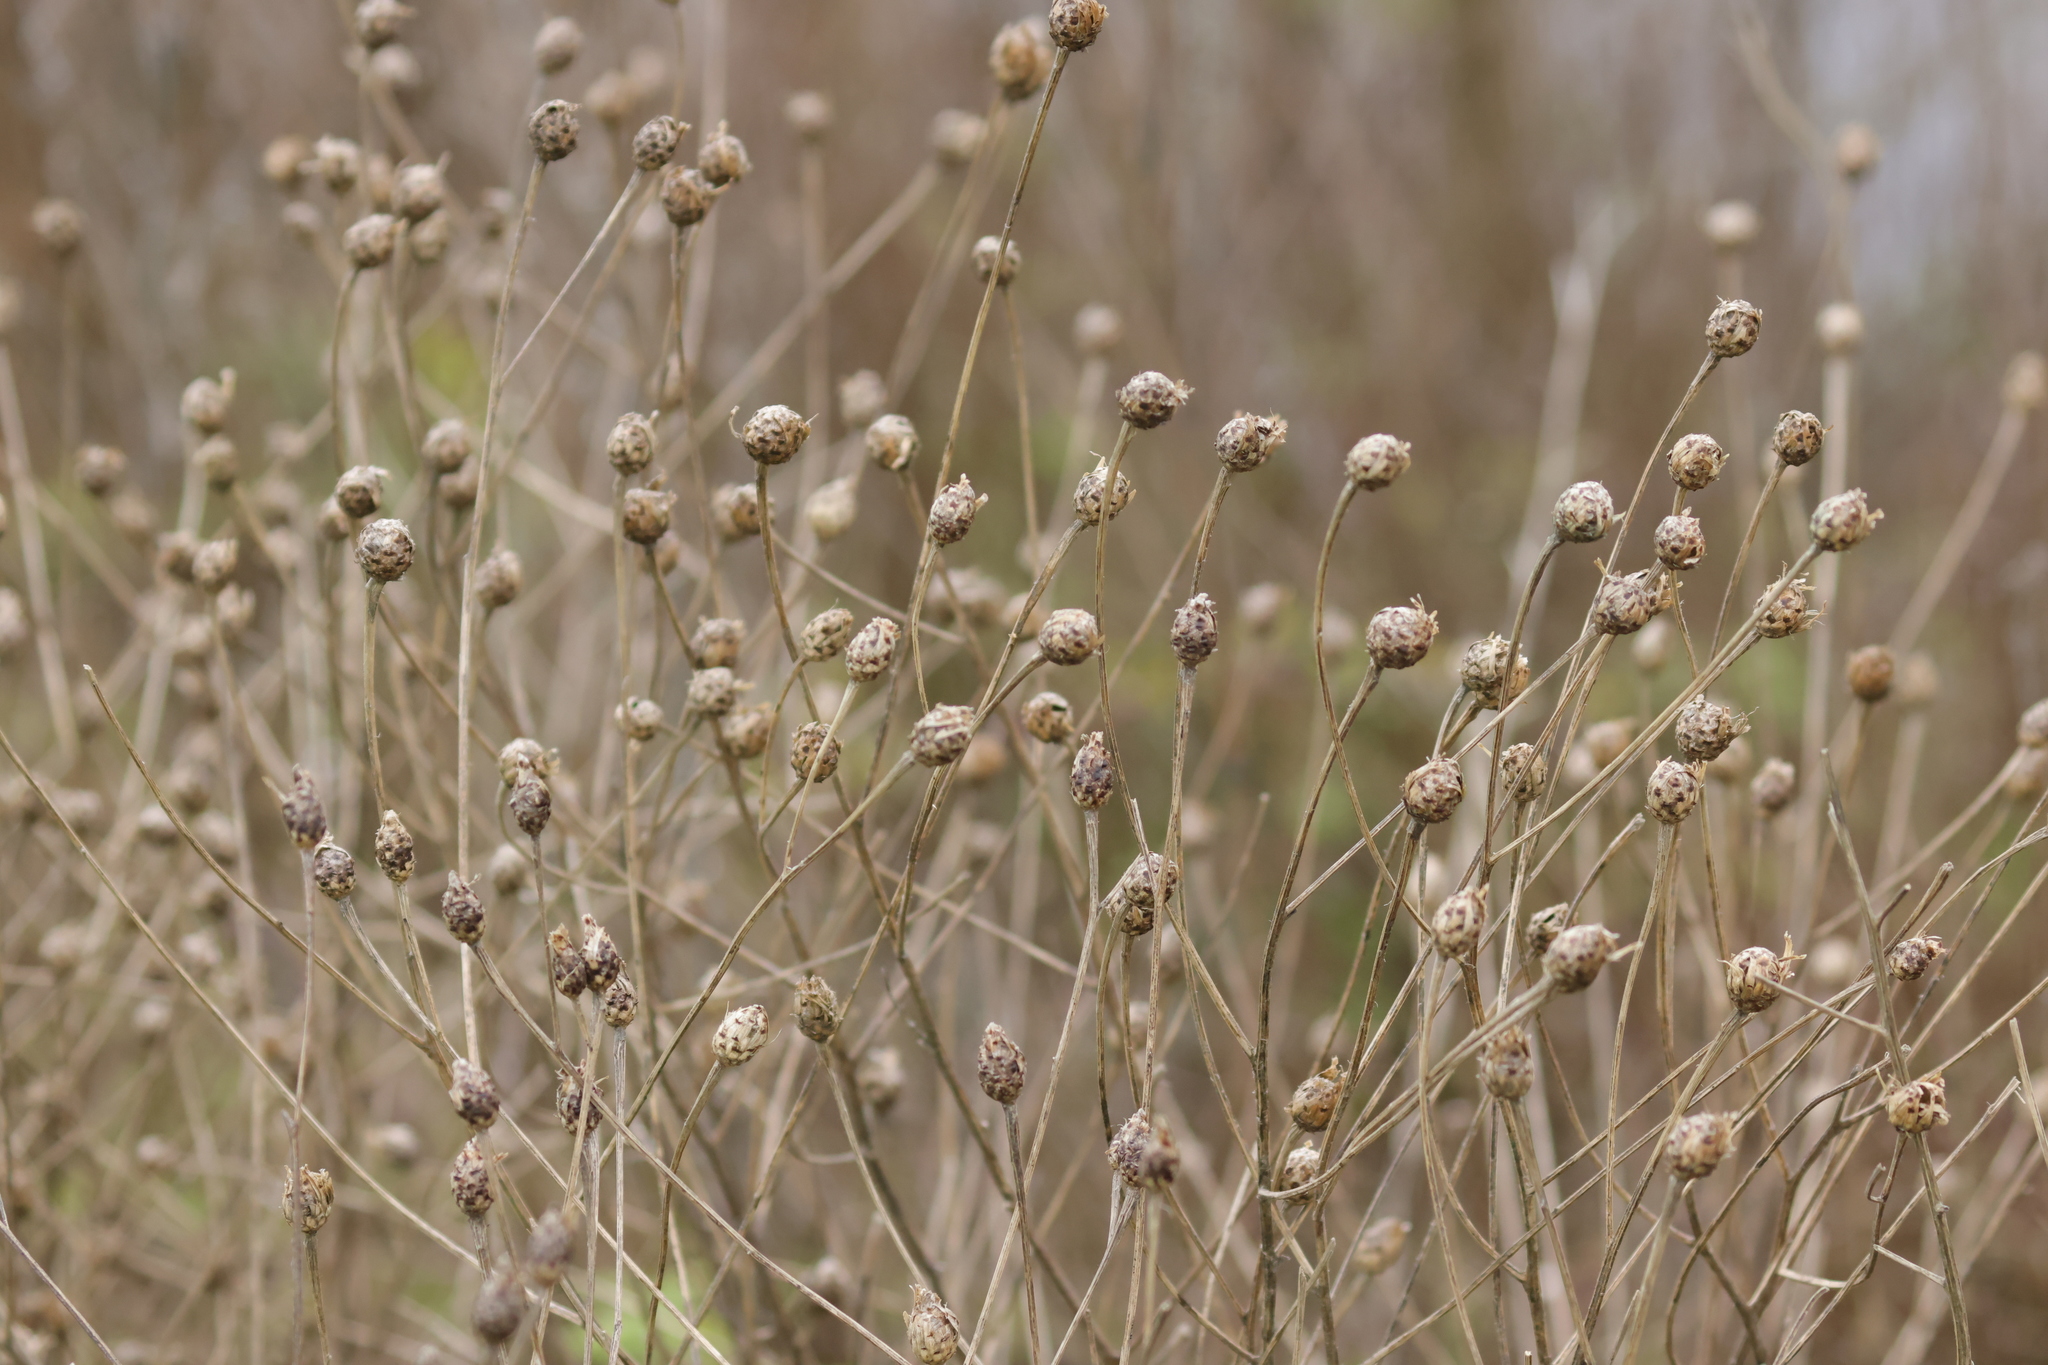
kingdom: Plantae
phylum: Tracheophyta
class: Magnoliopsida
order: Asterales
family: Asteraceae
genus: Centaurea
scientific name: Centaurea nigra
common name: Lesser knapweed
